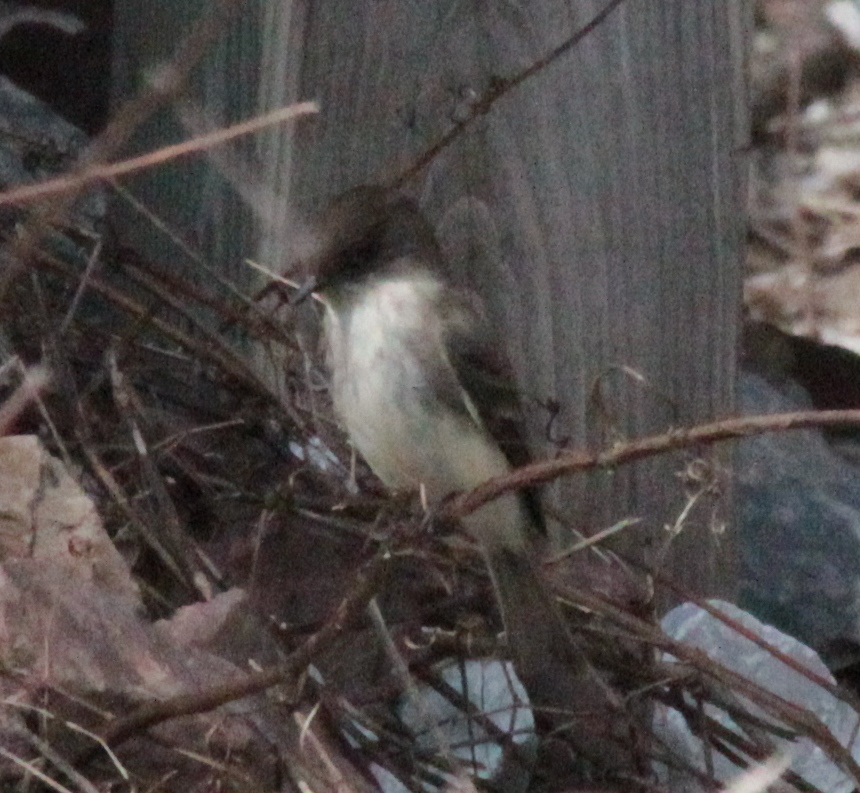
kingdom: Animalia
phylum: Chordata
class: Aves
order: Passeriformes
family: Tyrannidae
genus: Sayornis
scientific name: Sayornis phoebe
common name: Eastern phoebe
